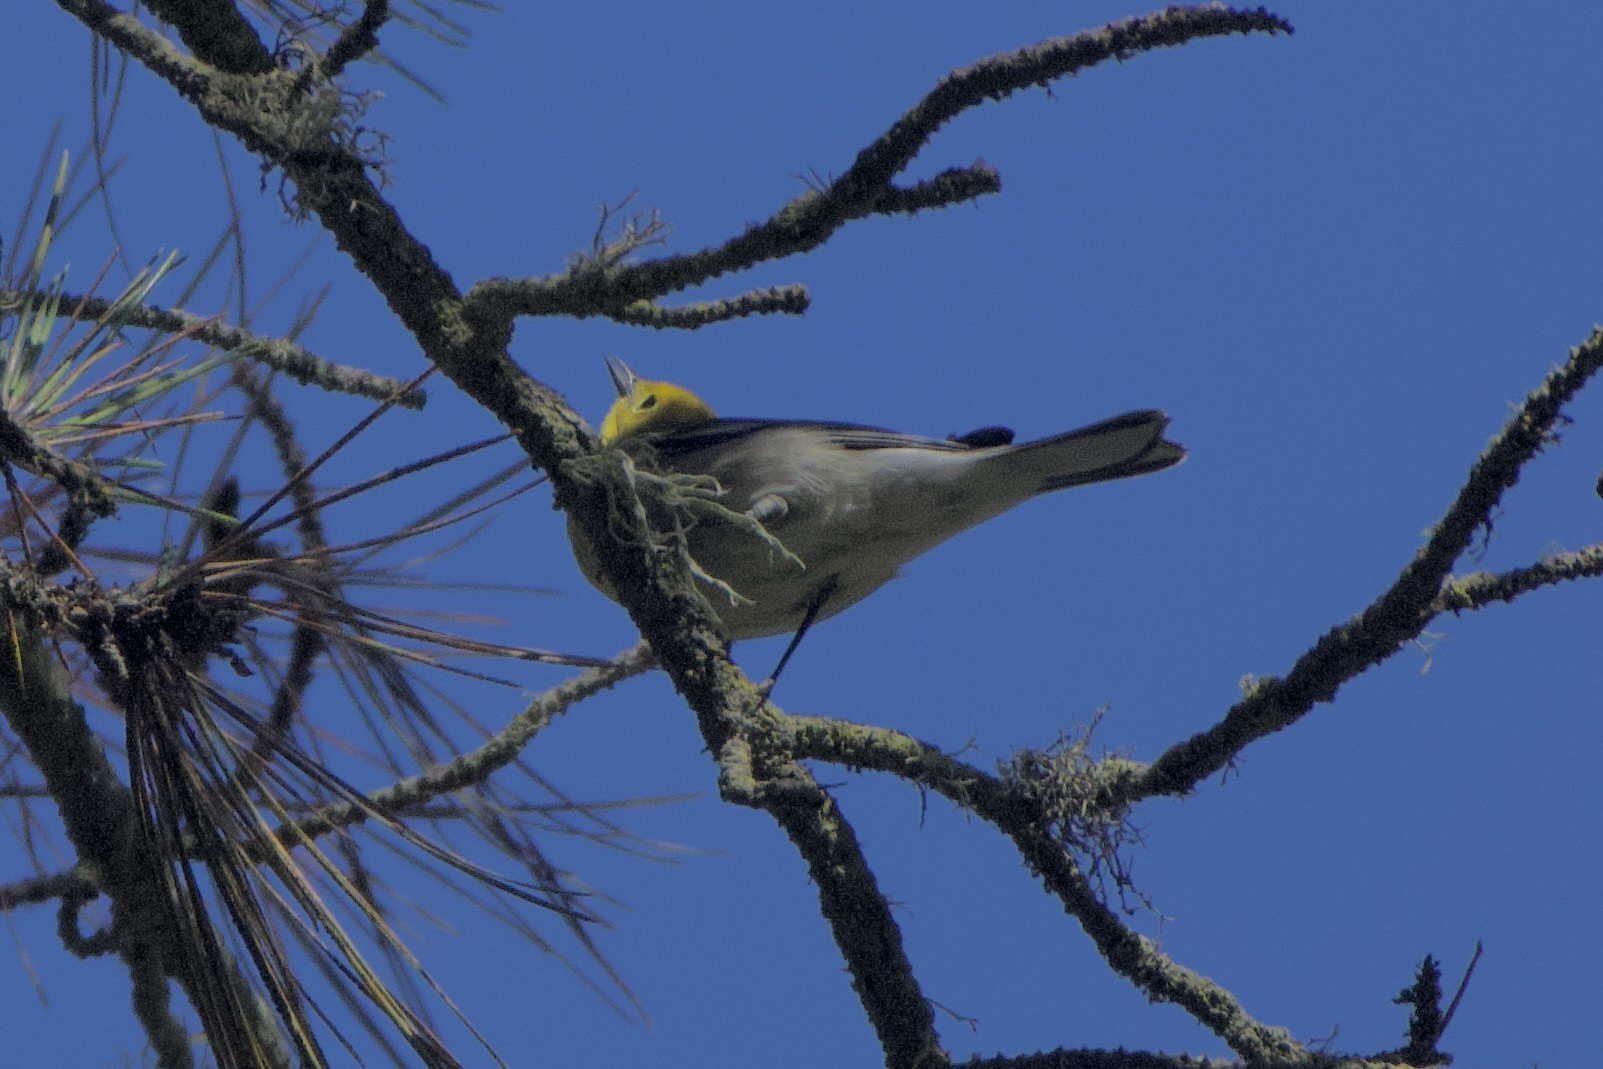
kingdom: Animalia
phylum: Chordata
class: Aves
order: Passeriformes
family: Parulidae
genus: Setophaga
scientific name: Setophaga occidentalis
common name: Hermit warbler
